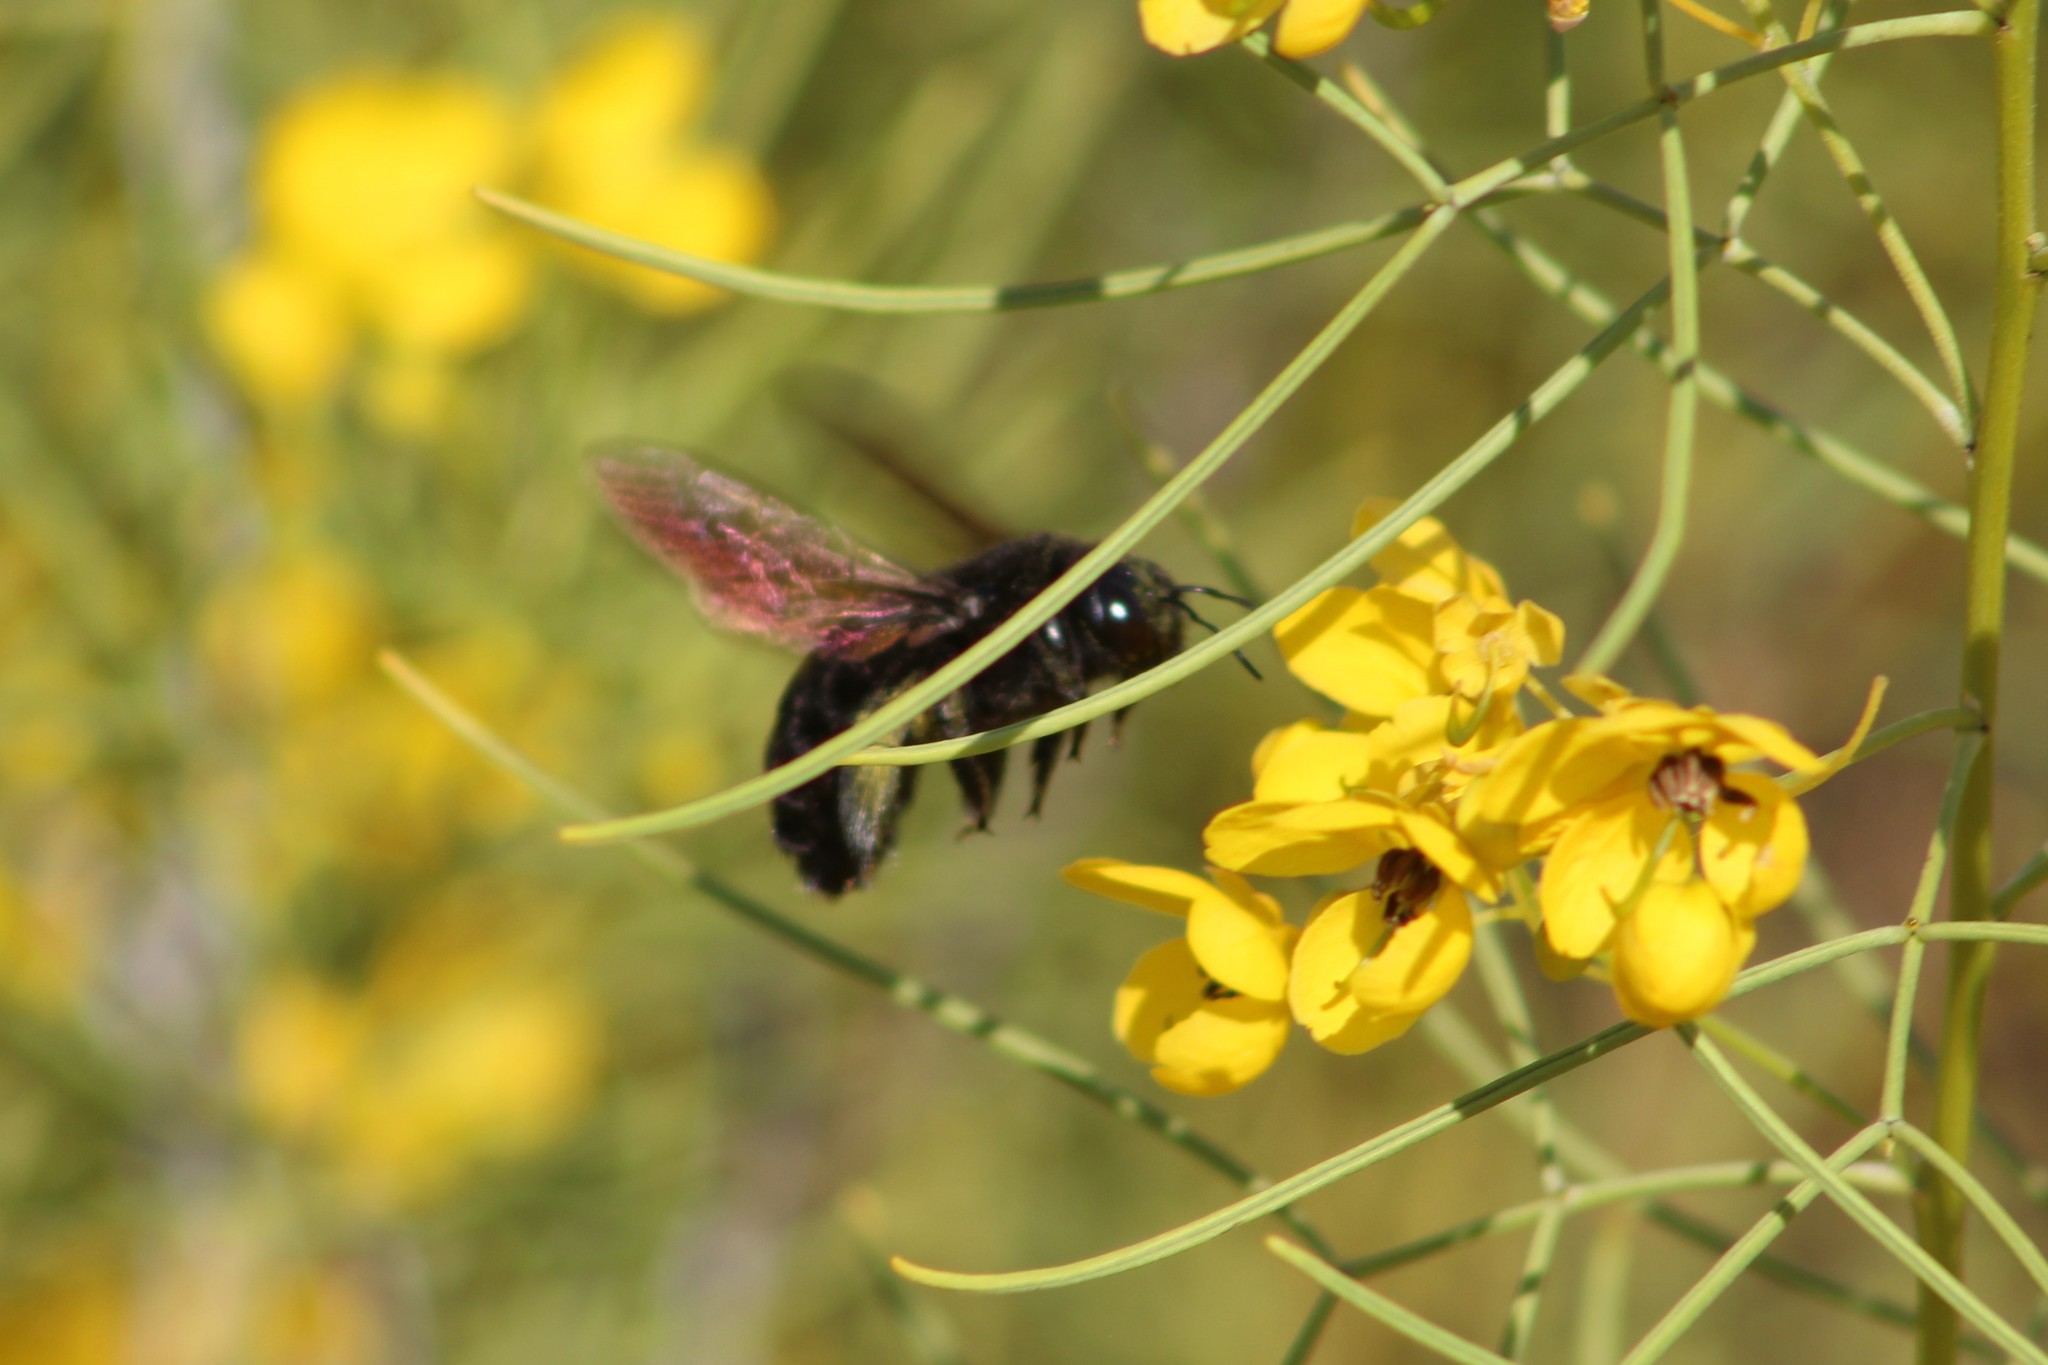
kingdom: Animalia
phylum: Arthropoda
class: Insecta
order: Hymenoptera
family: Apidae
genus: Xylocopa
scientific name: Xylocopa sonorina
